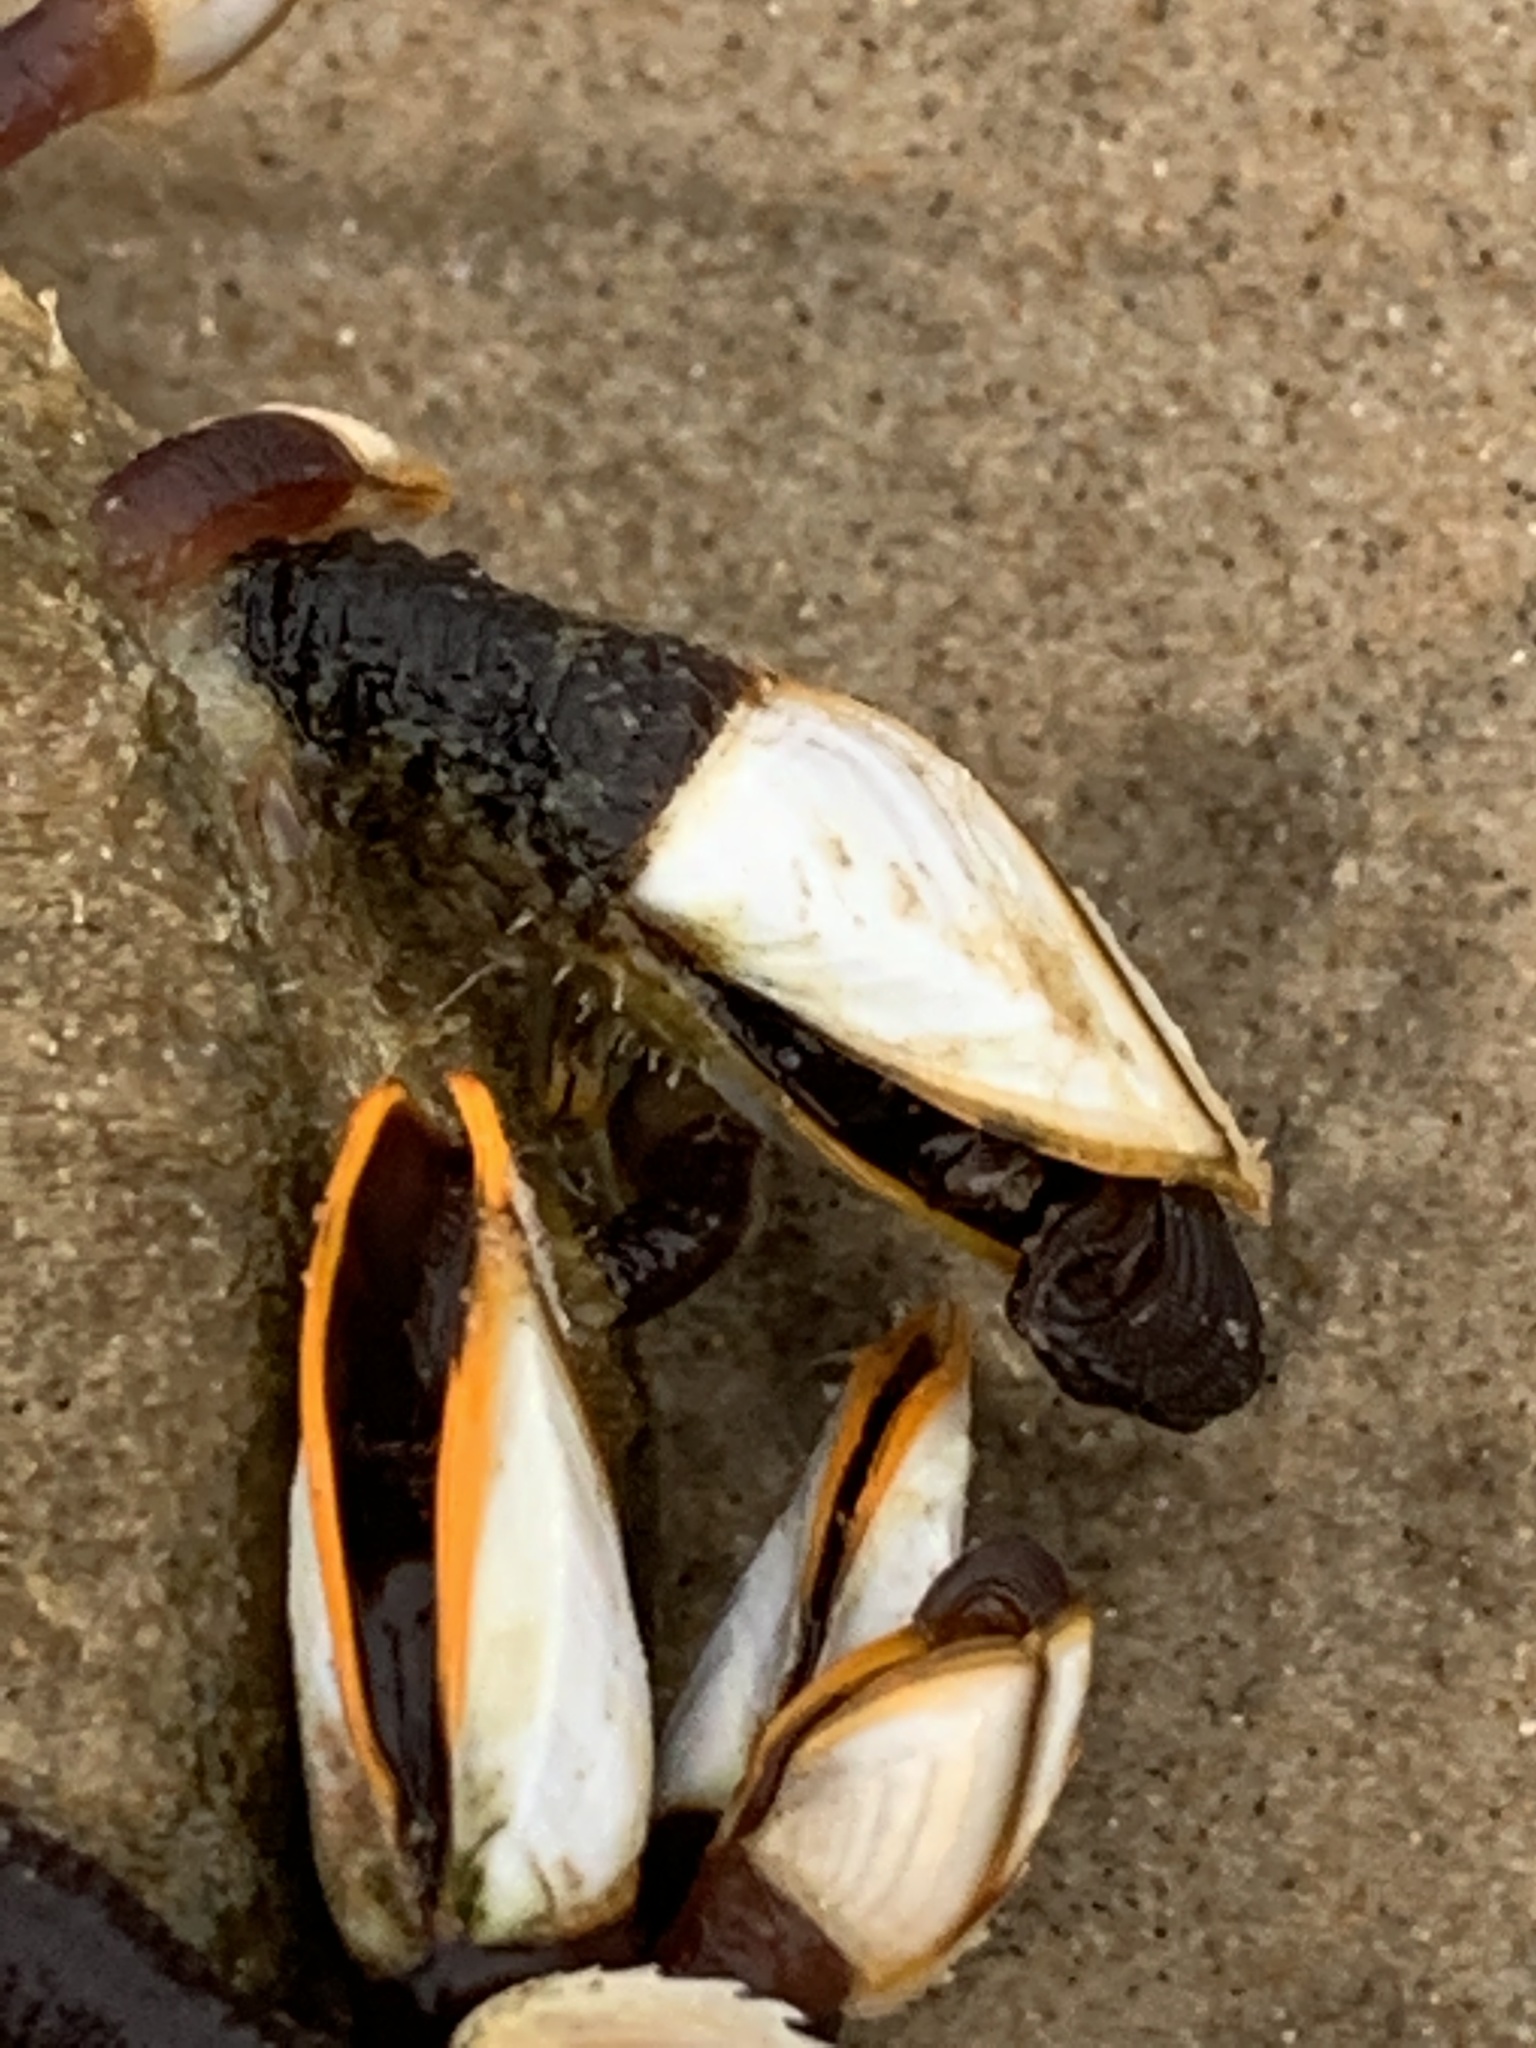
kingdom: Animalia
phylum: Arthropoda
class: Maxillopoda
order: Pedunculata
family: Lepadidae
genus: Lepas
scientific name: Lepas indica
